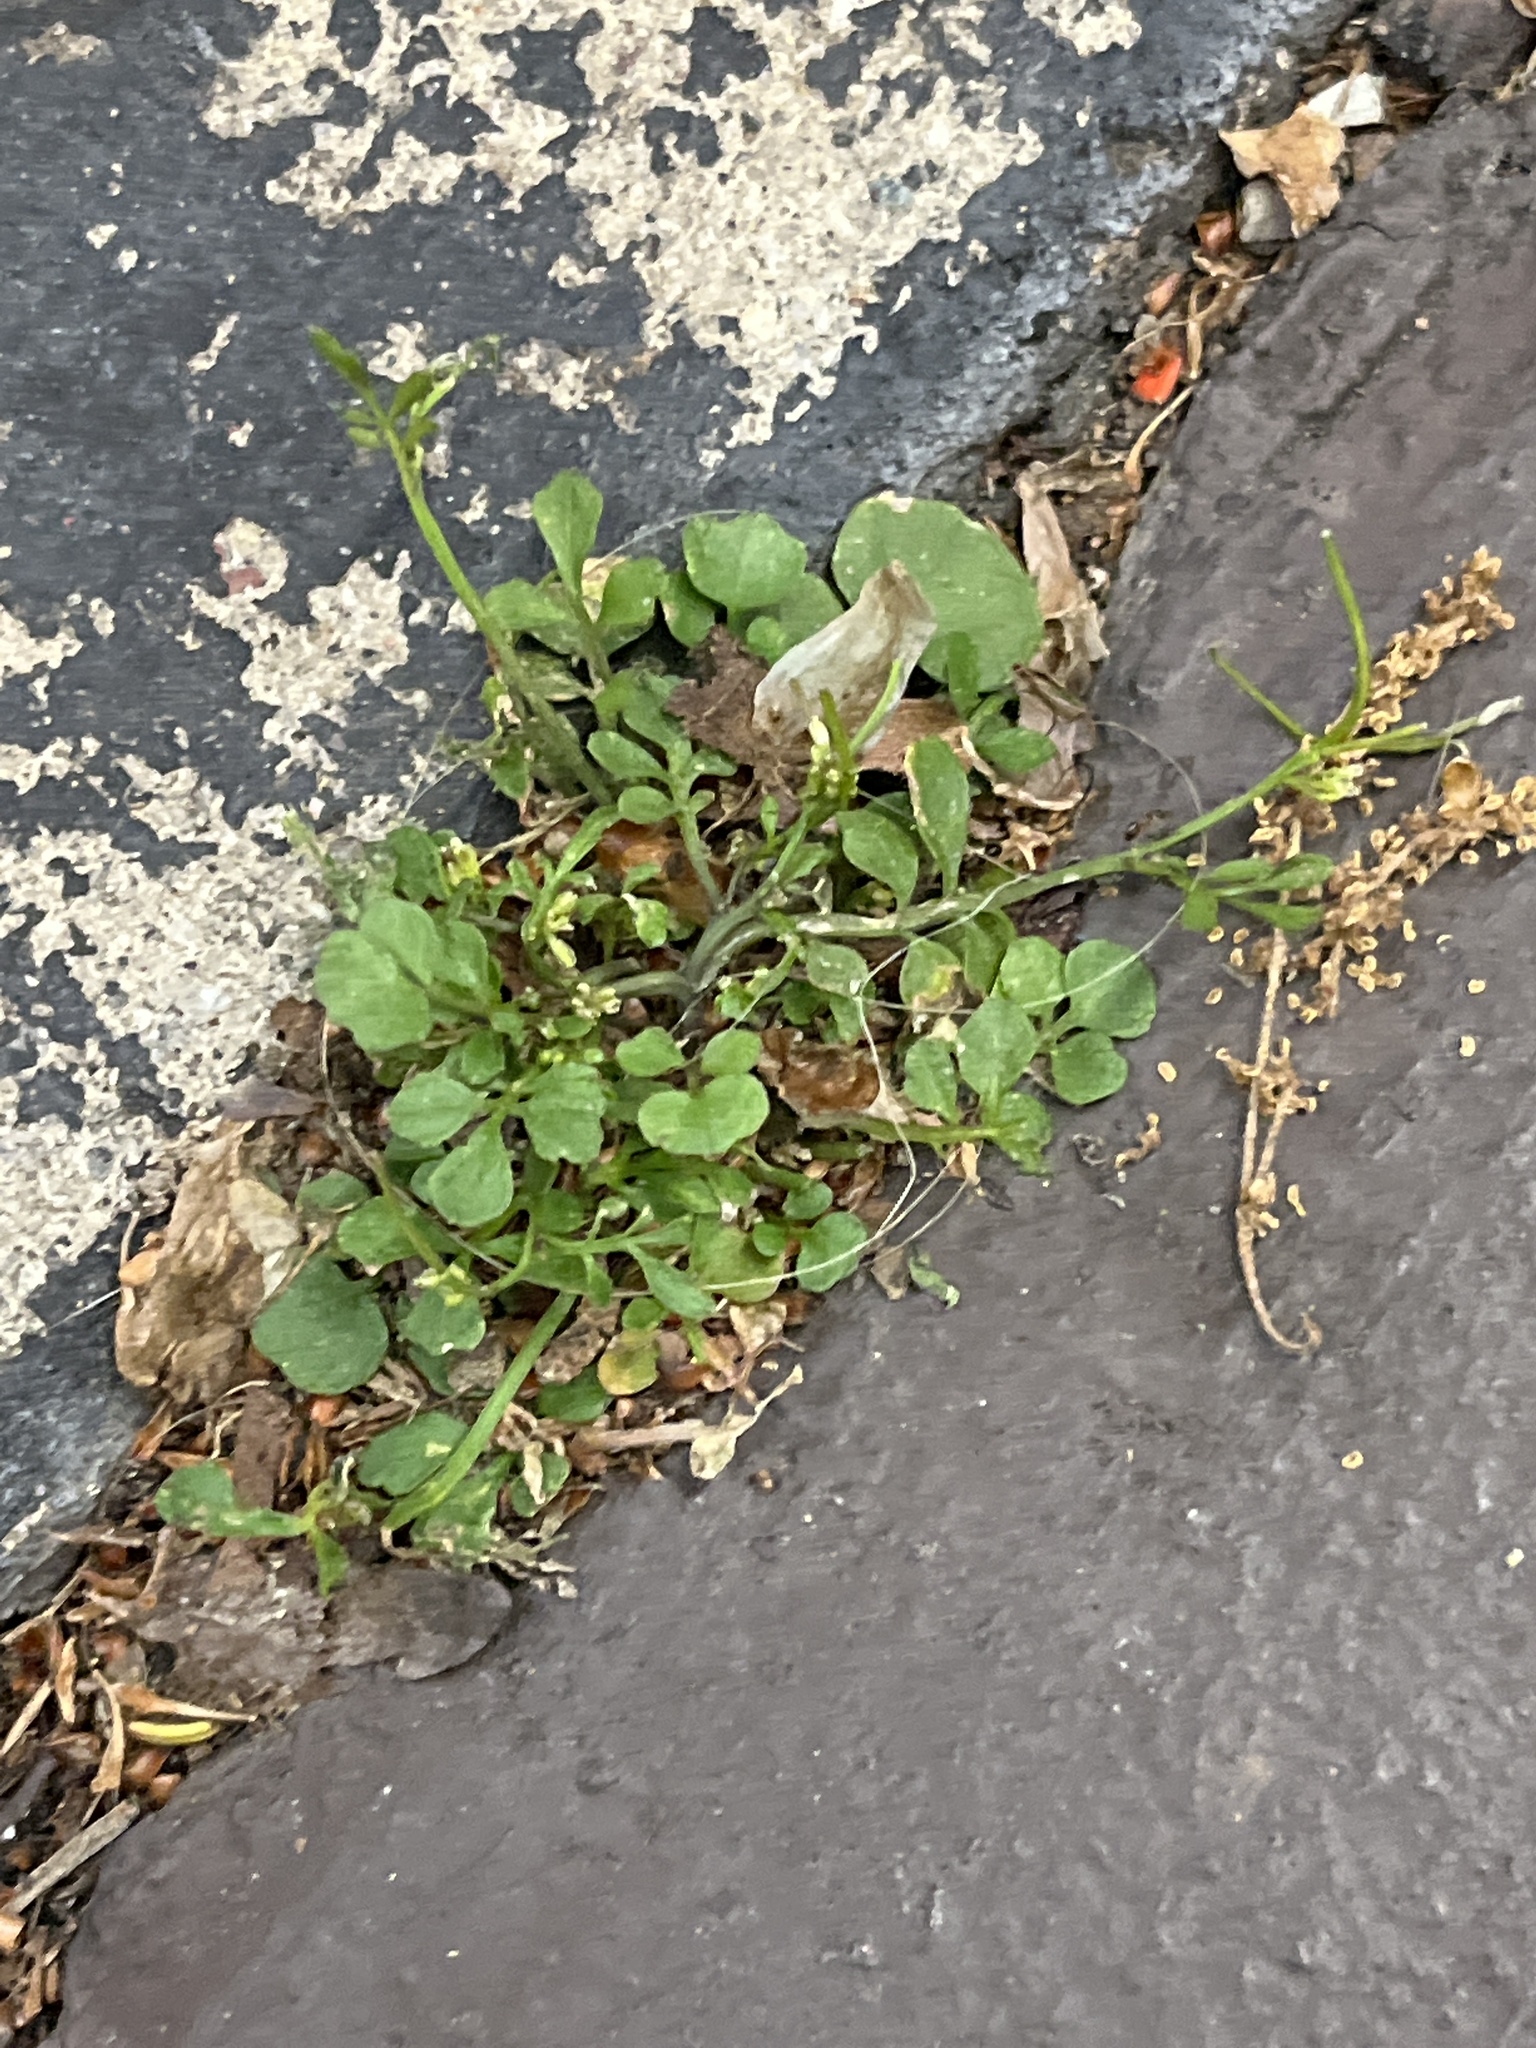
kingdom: Plantae
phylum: Tracheophyta
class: Magnoliopsida
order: Brassicales
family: Brassicaceae
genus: Cardamine
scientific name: Cardamine hirsuta
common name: Hairy bittercress
